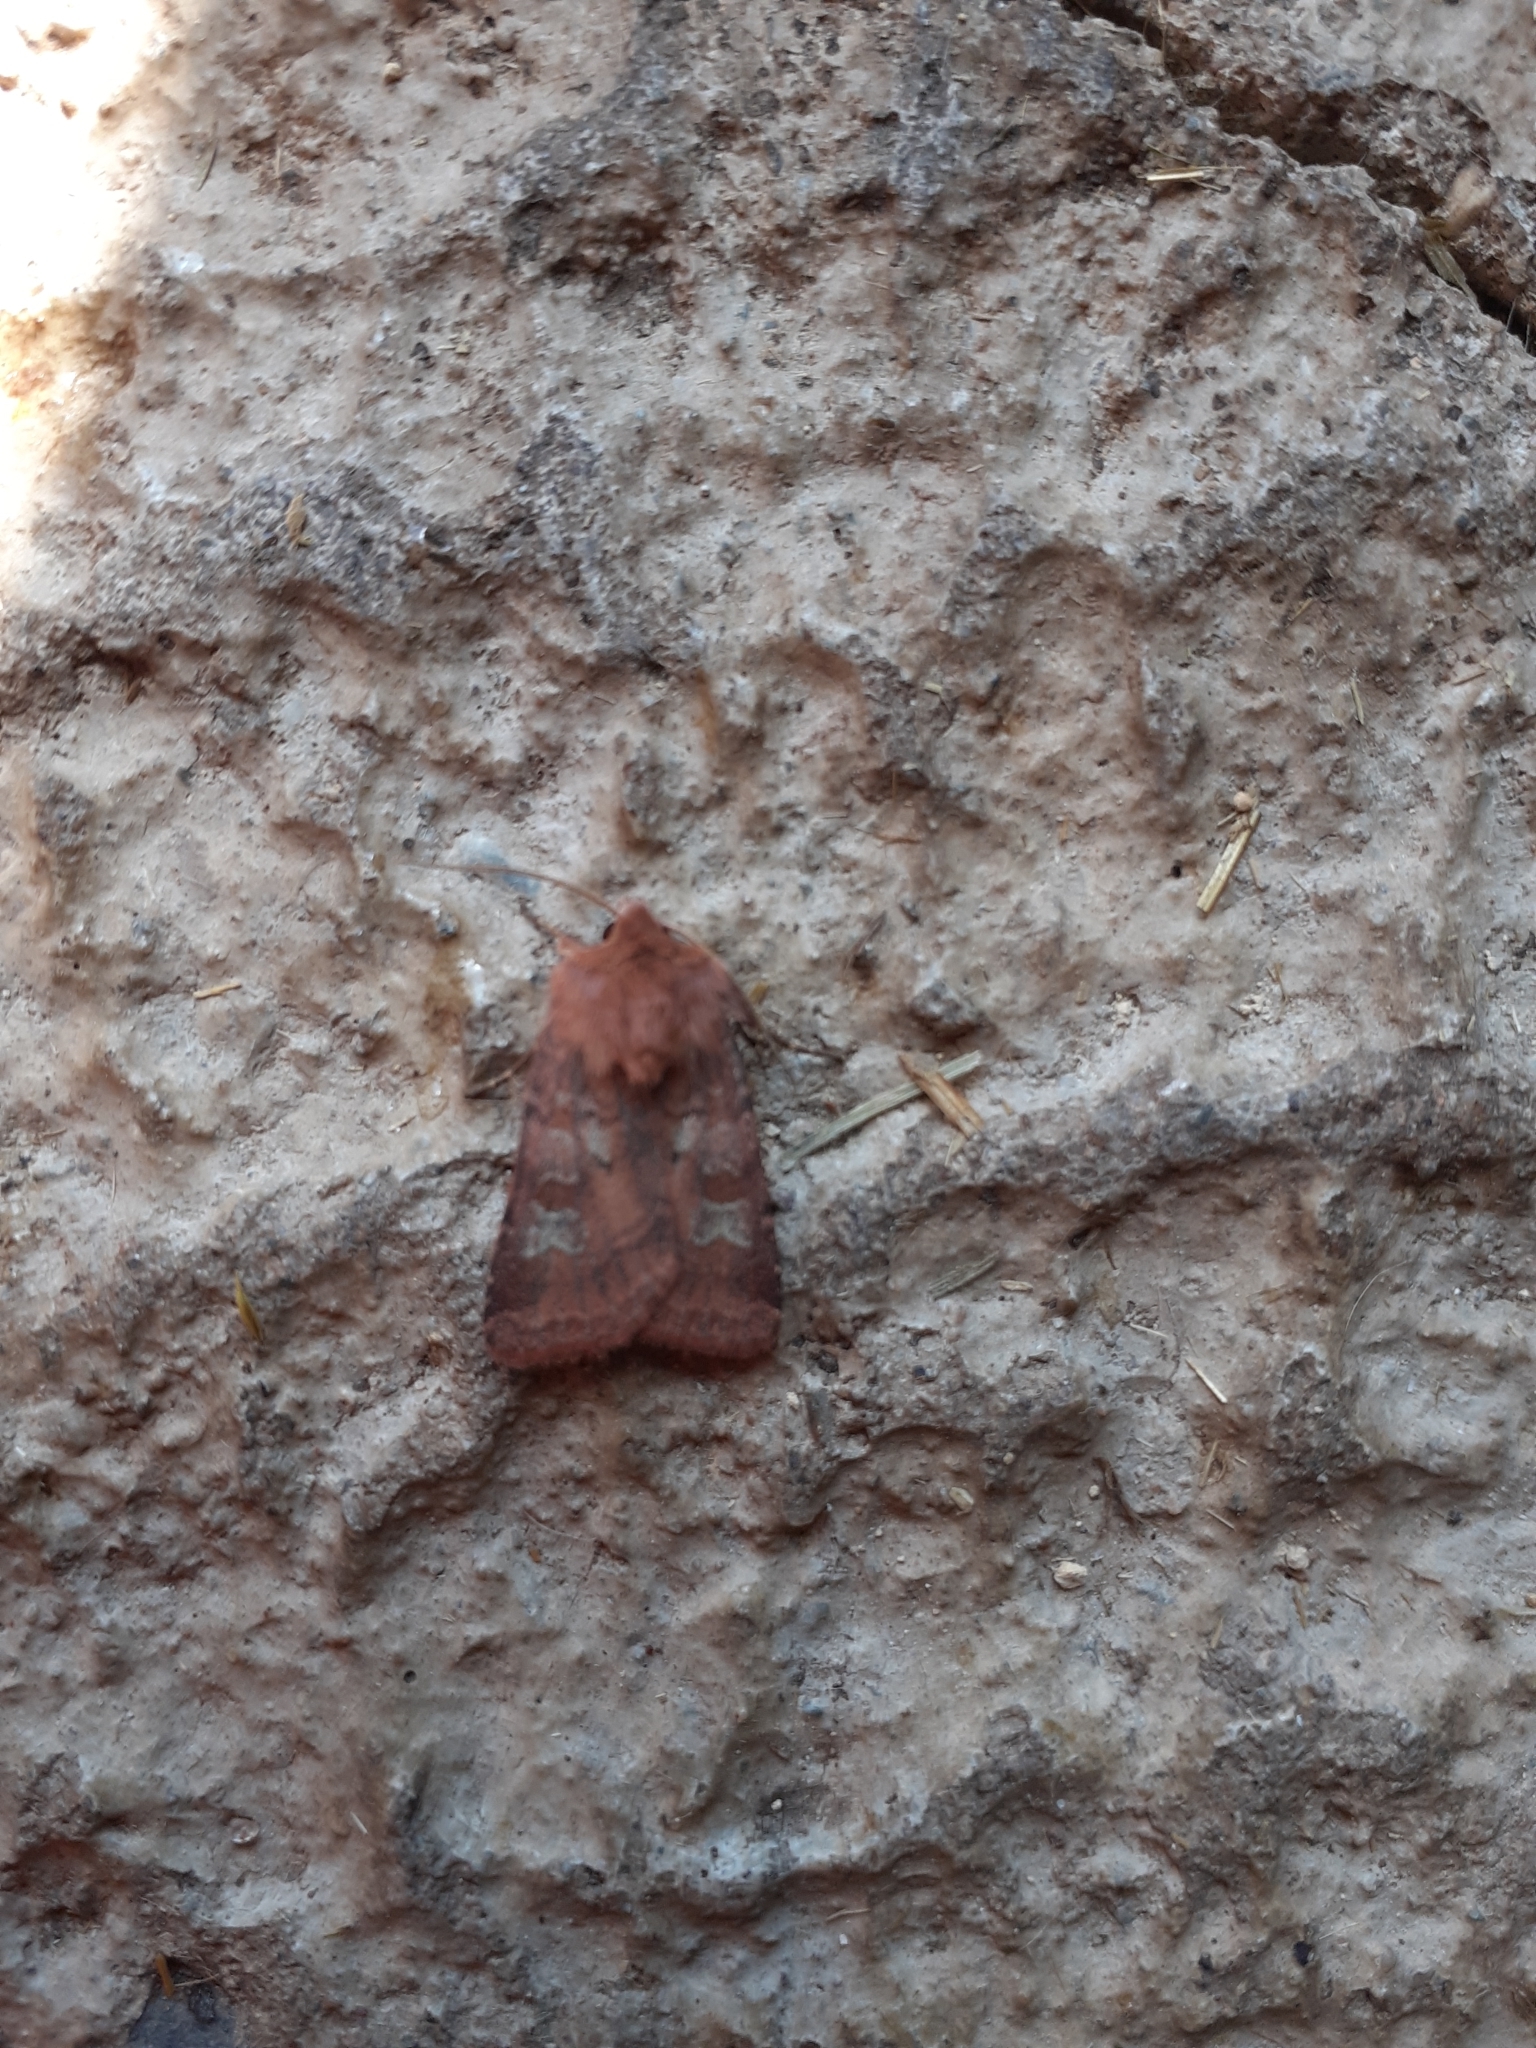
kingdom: Animalia
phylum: Arthropoda
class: Insecta
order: Lepidoptera
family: Noctuidae
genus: Diarsia
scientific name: Diarsia rubi
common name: Small square-spot
